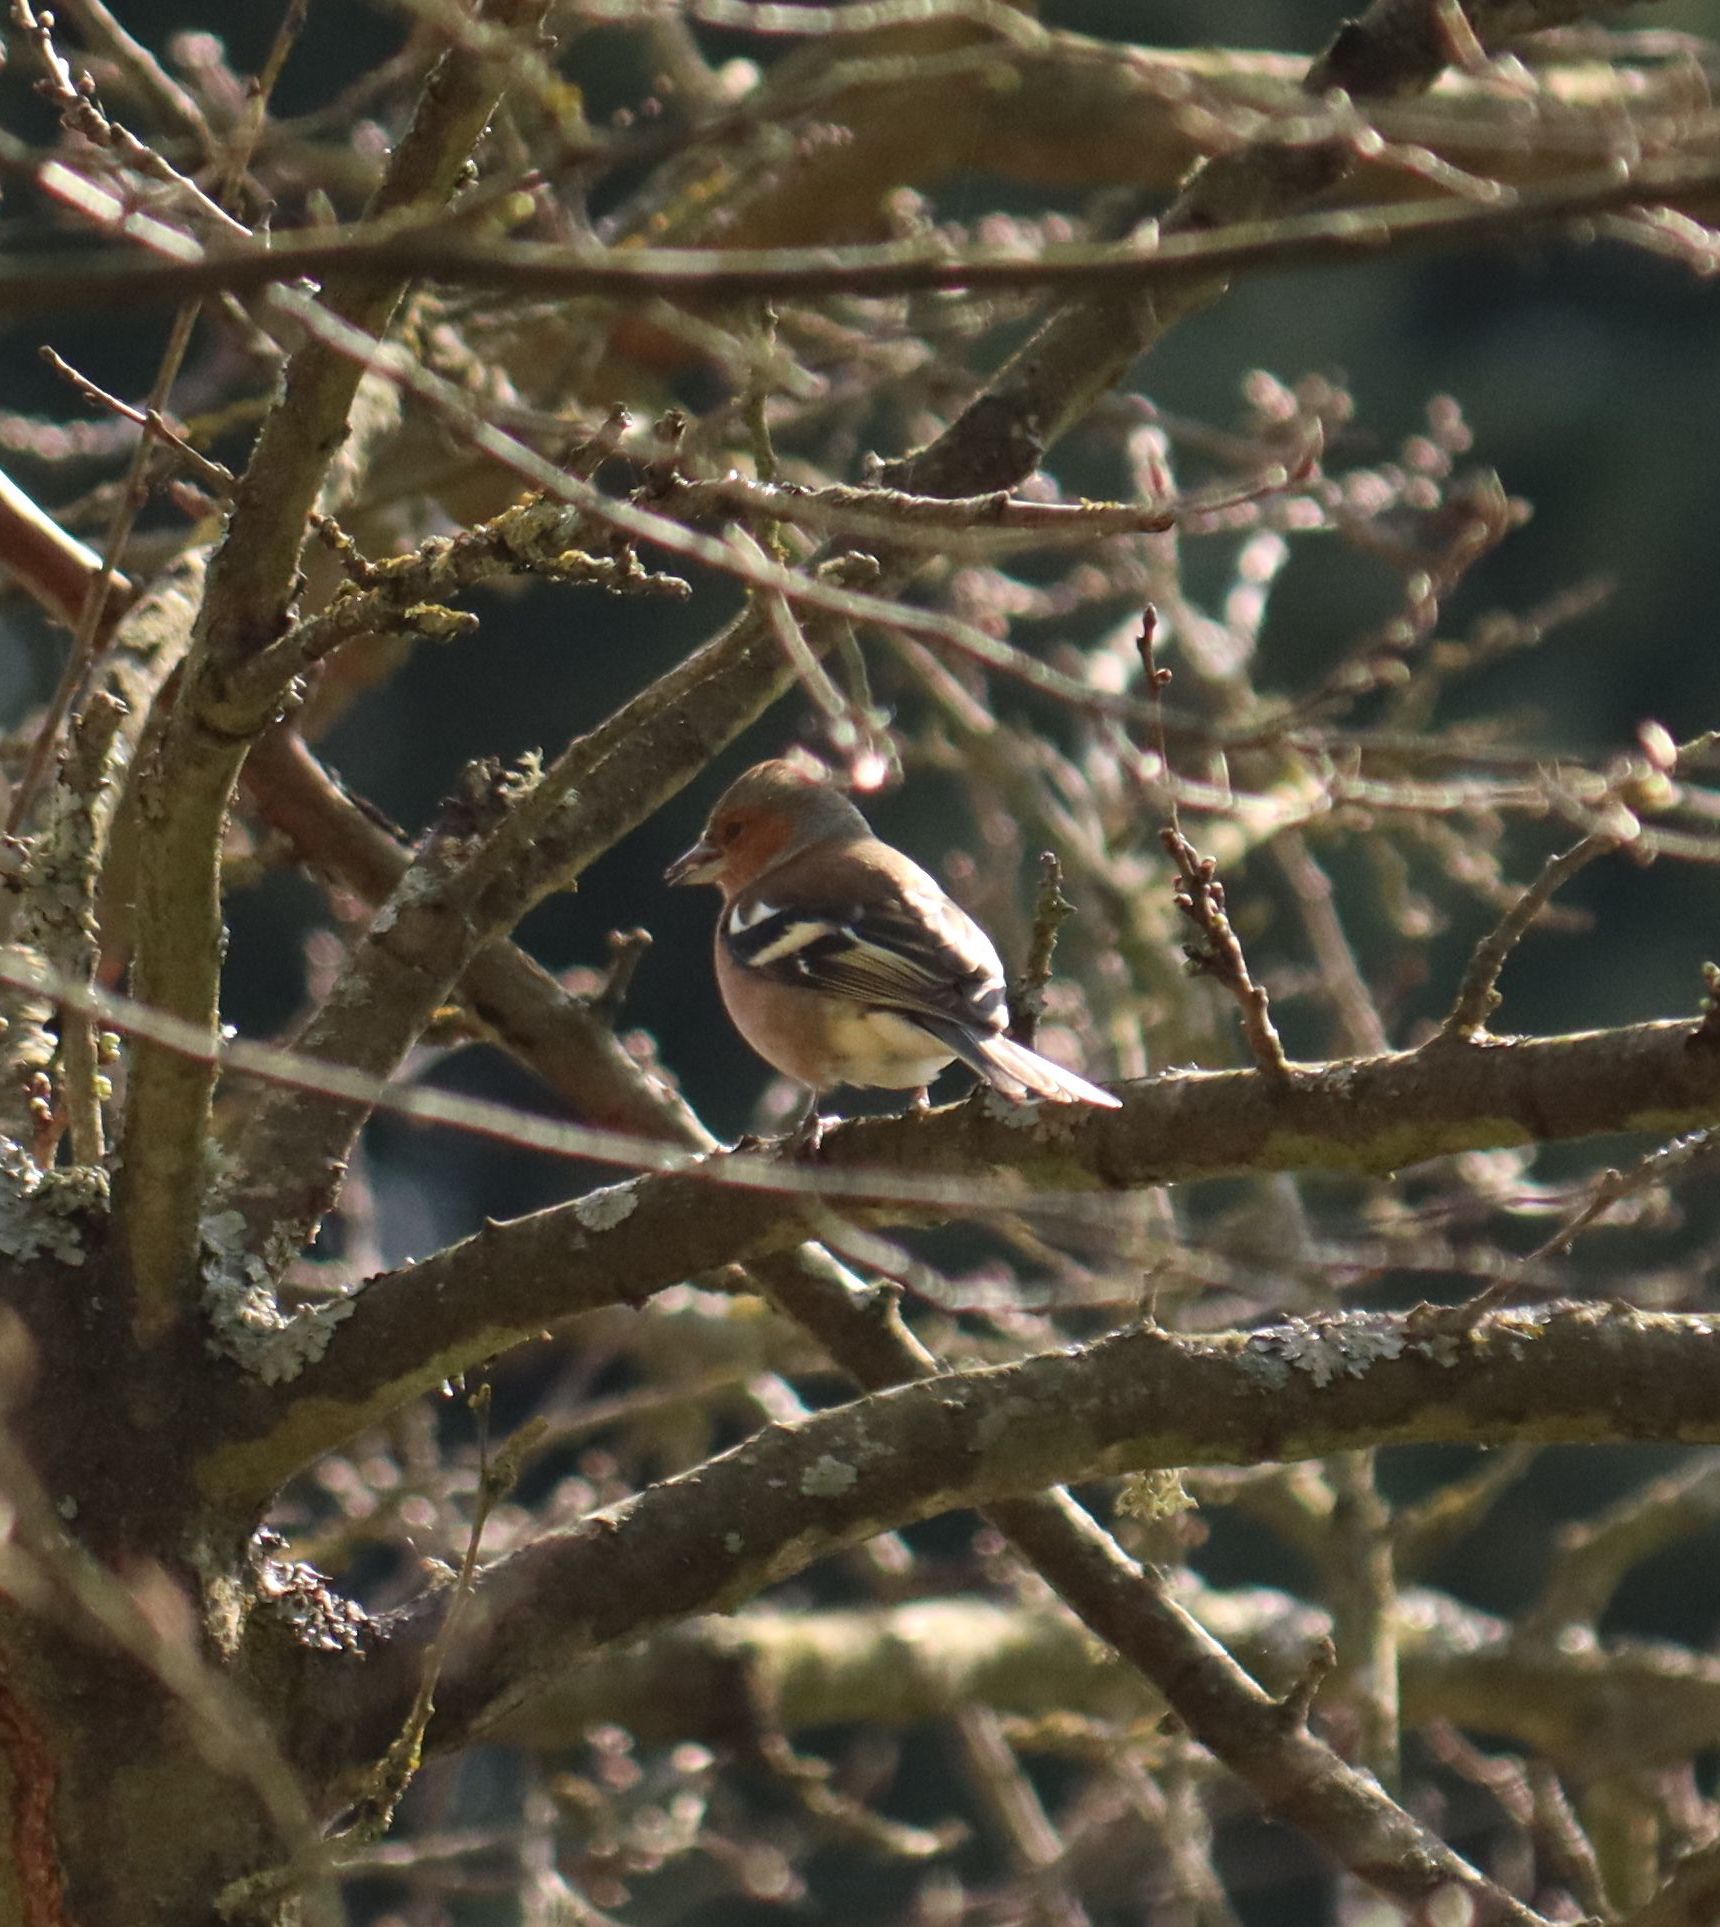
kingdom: Animalia
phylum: Chordata
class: Aves
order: Passeriformes
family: Fringillidae
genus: Fringilla
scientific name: Fringilla coelebs
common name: Common chaffinch
